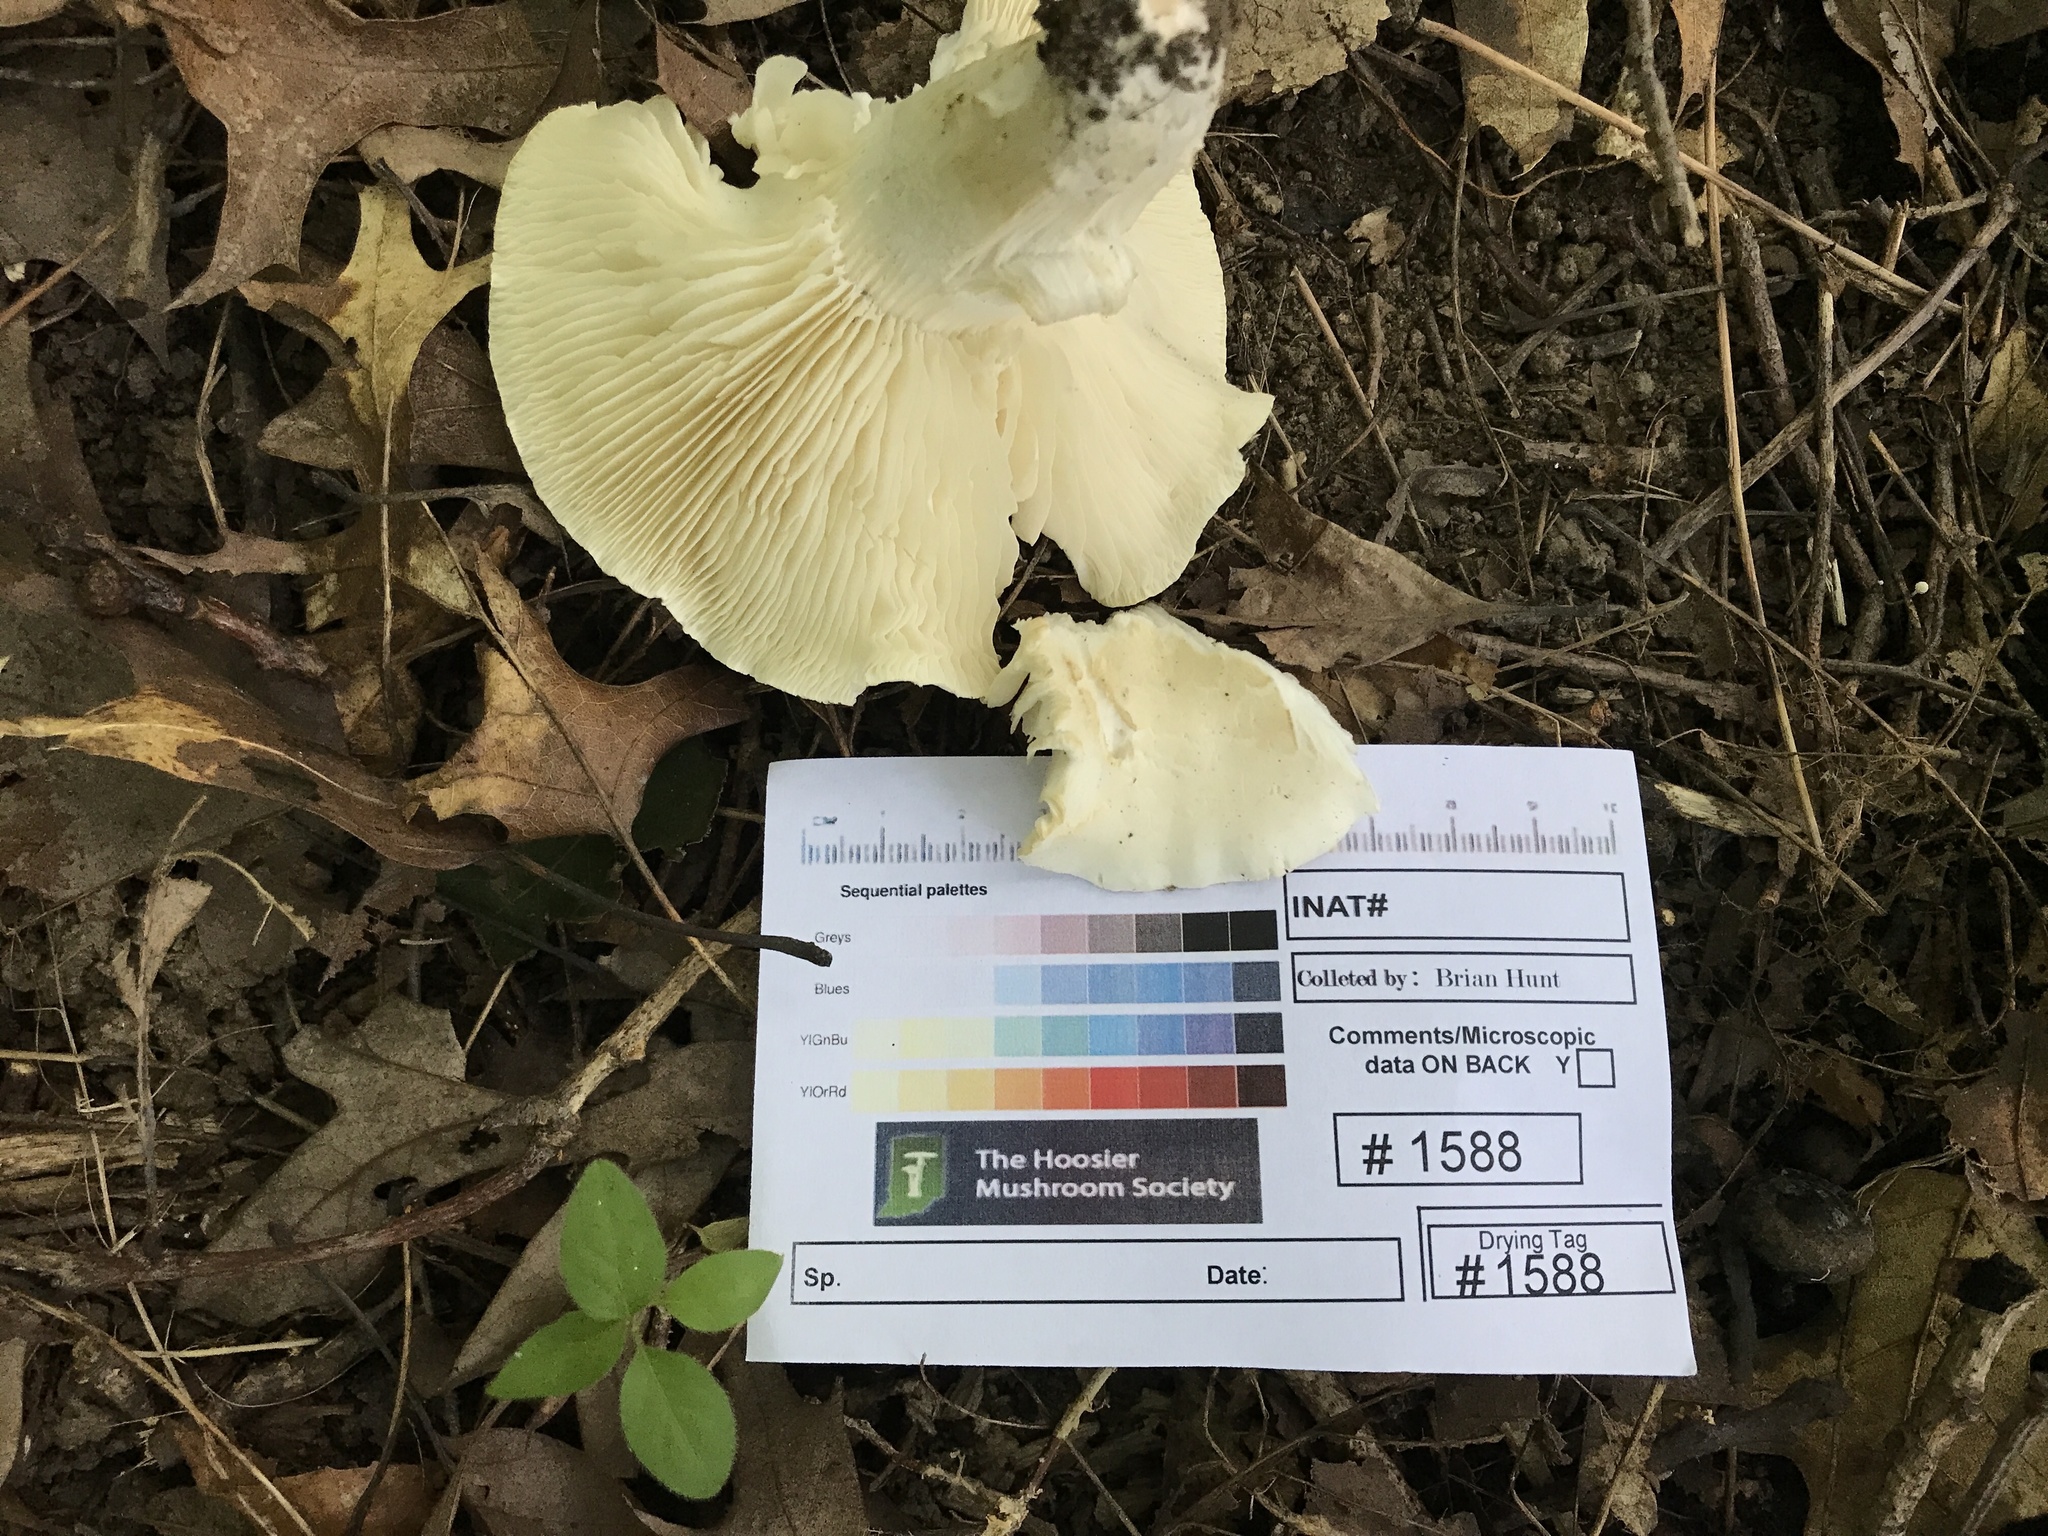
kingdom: Fungi
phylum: Basidiomycota
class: Agaricomycetes
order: Agaricales
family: Tricholomataceae
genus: Tricholoma
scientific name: Tricholoma
